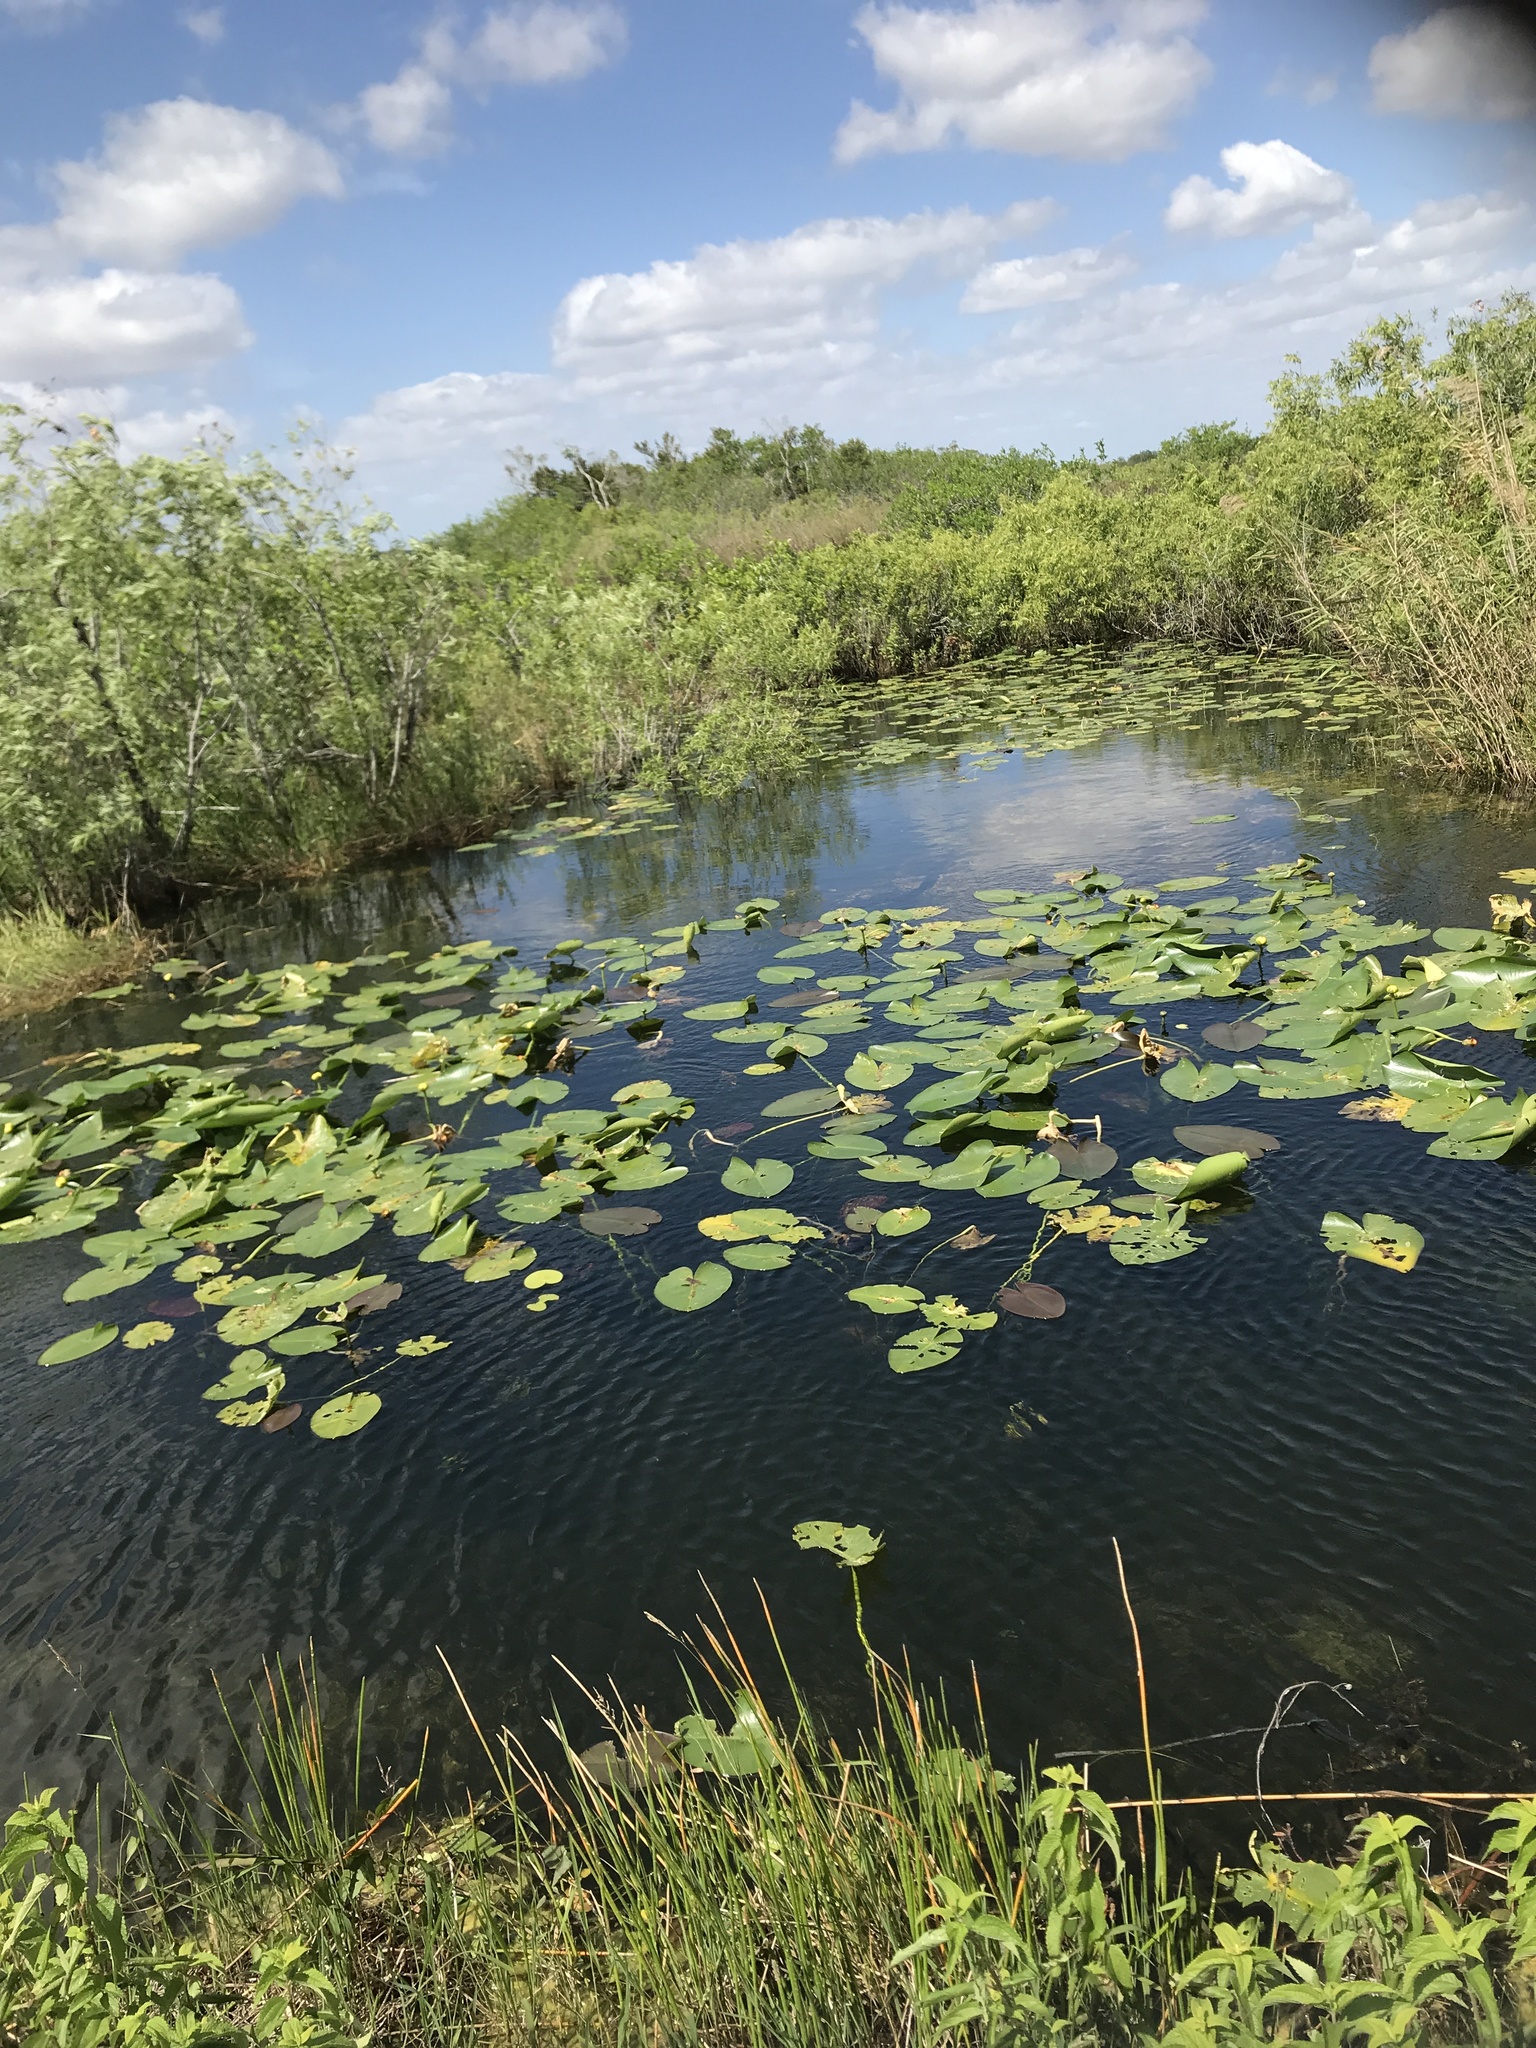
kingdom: Plantae
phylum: Tracheophyta
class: Magnoliopsida
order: Nymphaeales
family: Nymphaeaceae
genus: Nuphar
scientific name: Nuphar advena
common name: Spatter-dock
